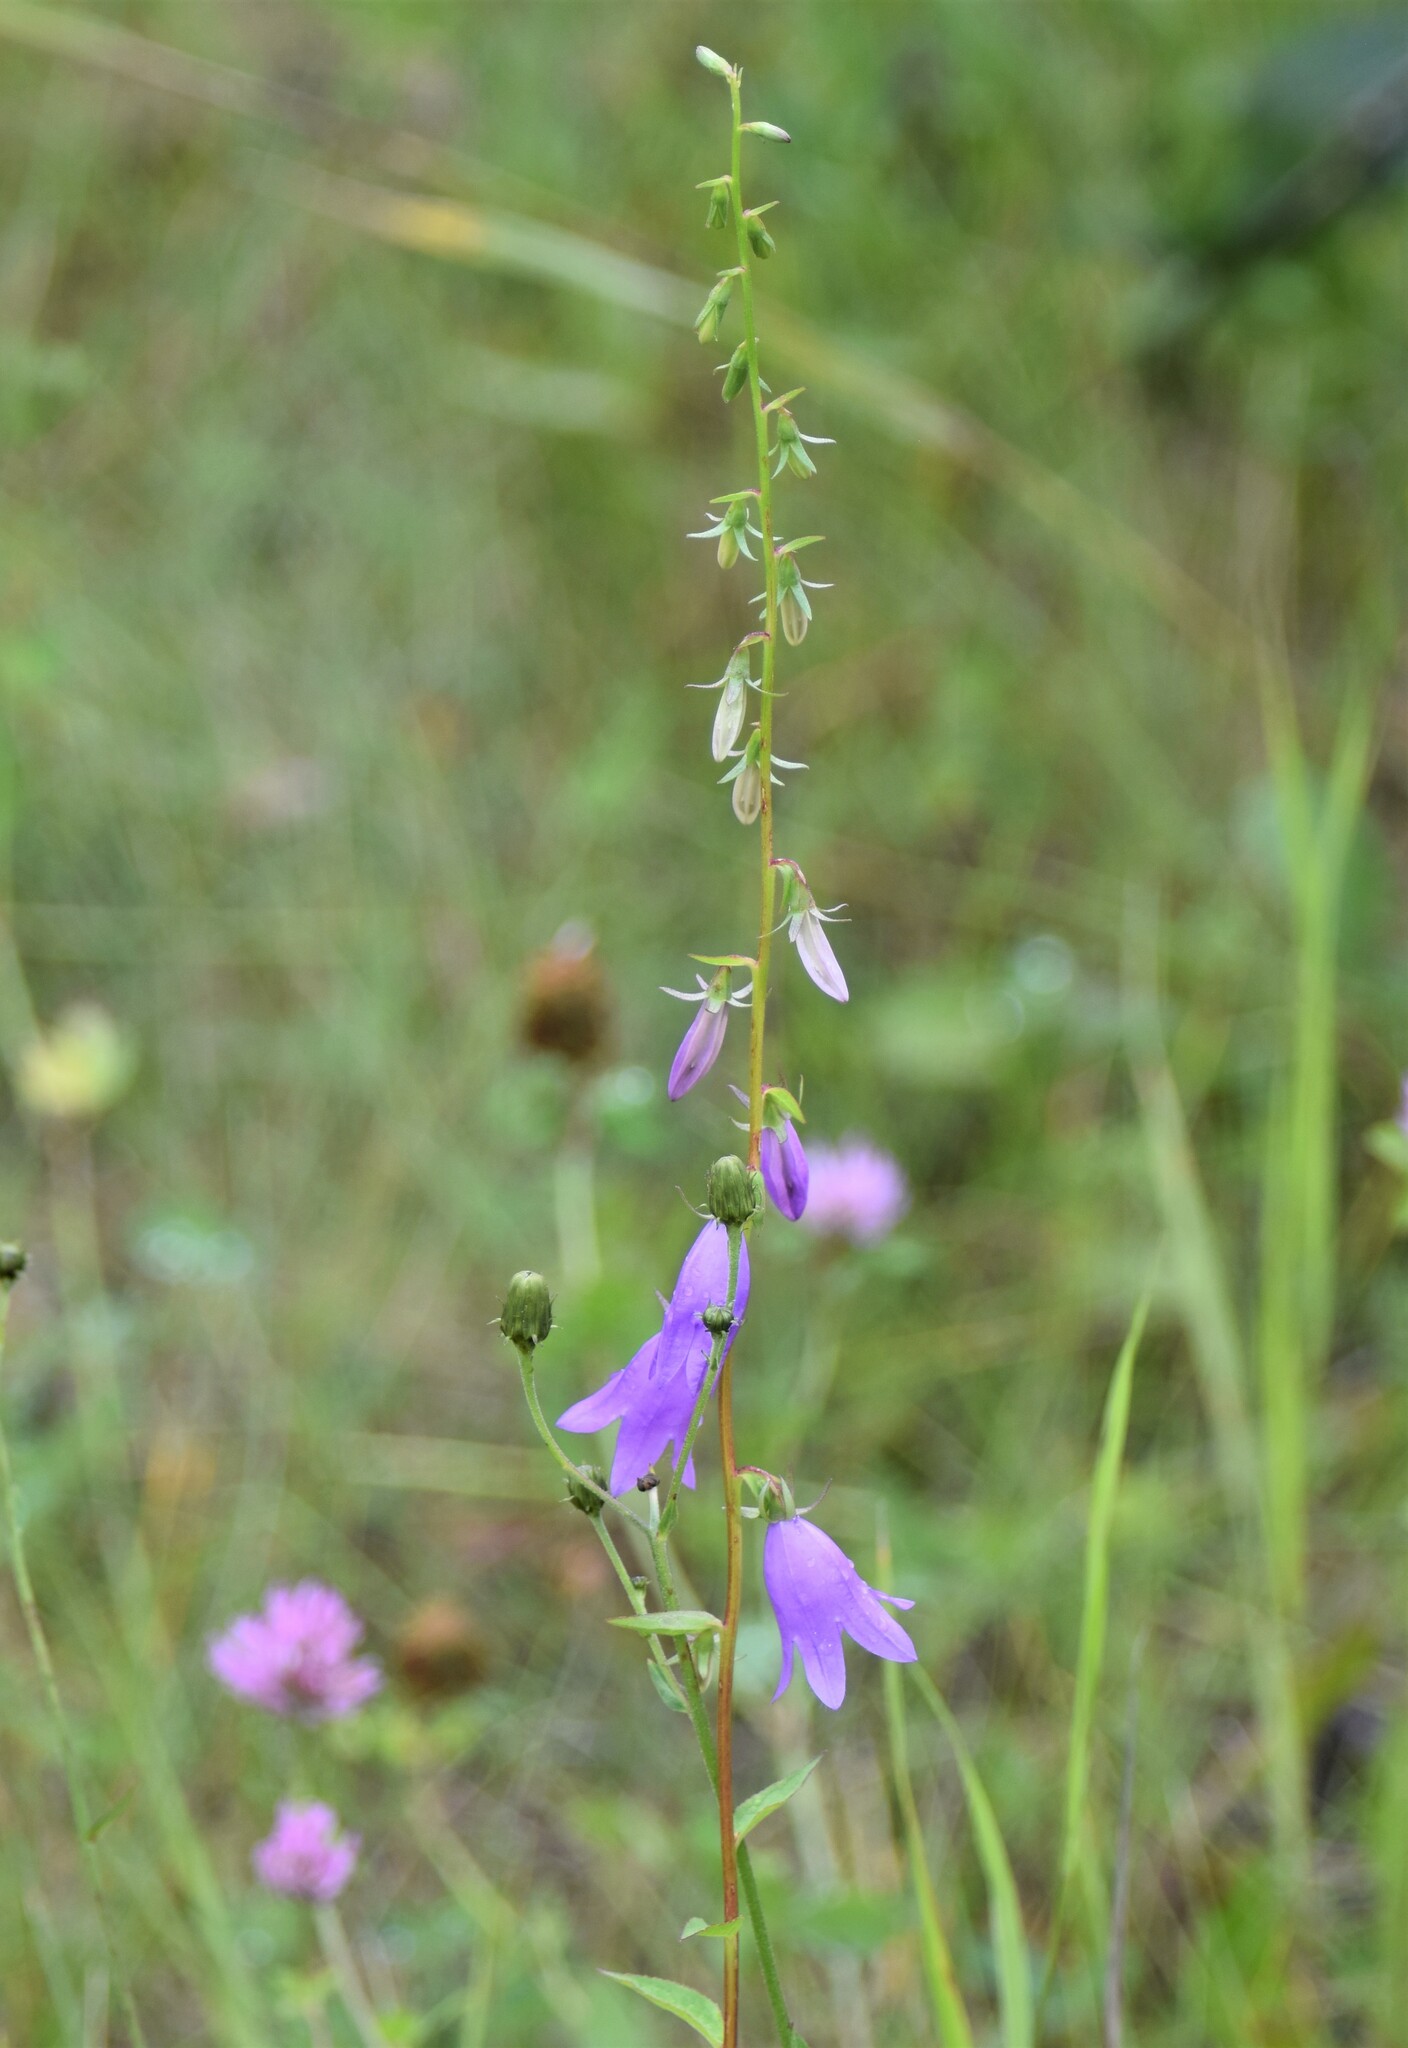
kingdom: Plantae
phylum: Tracheophyta
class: Magnoliopsida
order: Asterales
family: Campanulaceae
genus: Campanula
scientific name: Campanula rapunculoides
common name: Creeping bellflower
